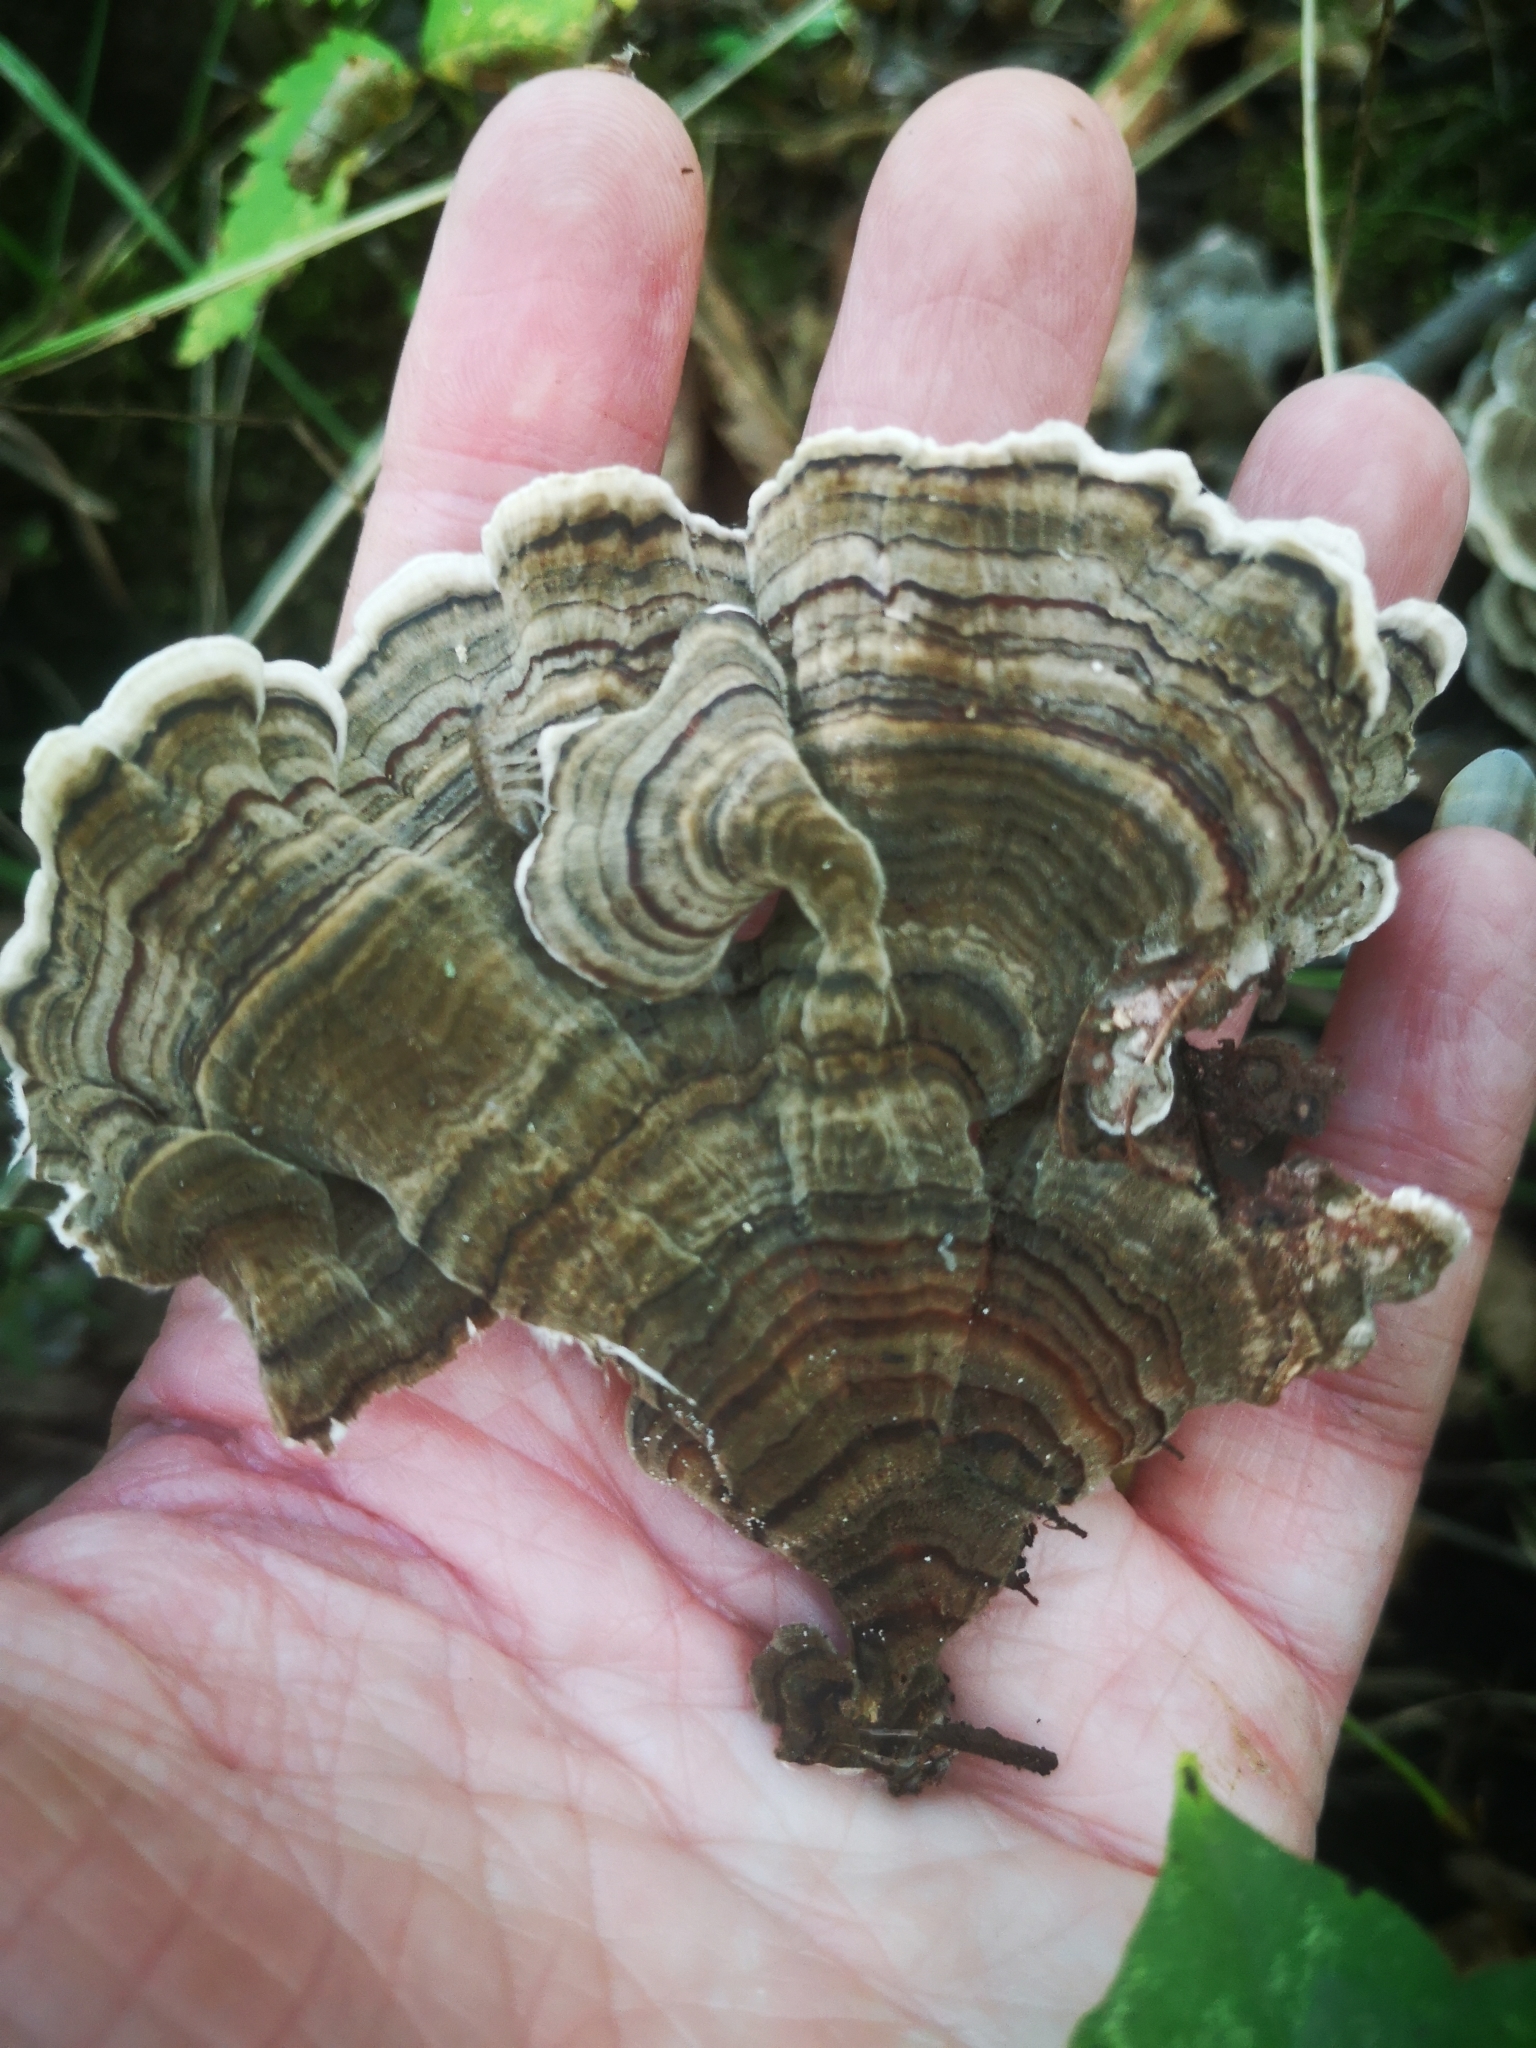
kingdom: Fungi
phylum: Basidiomycota
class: Agaricomycetes
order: Polyporales
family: Polyporaceae
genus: Trametes
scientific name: Trametes versicolor
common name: Turkeytail
